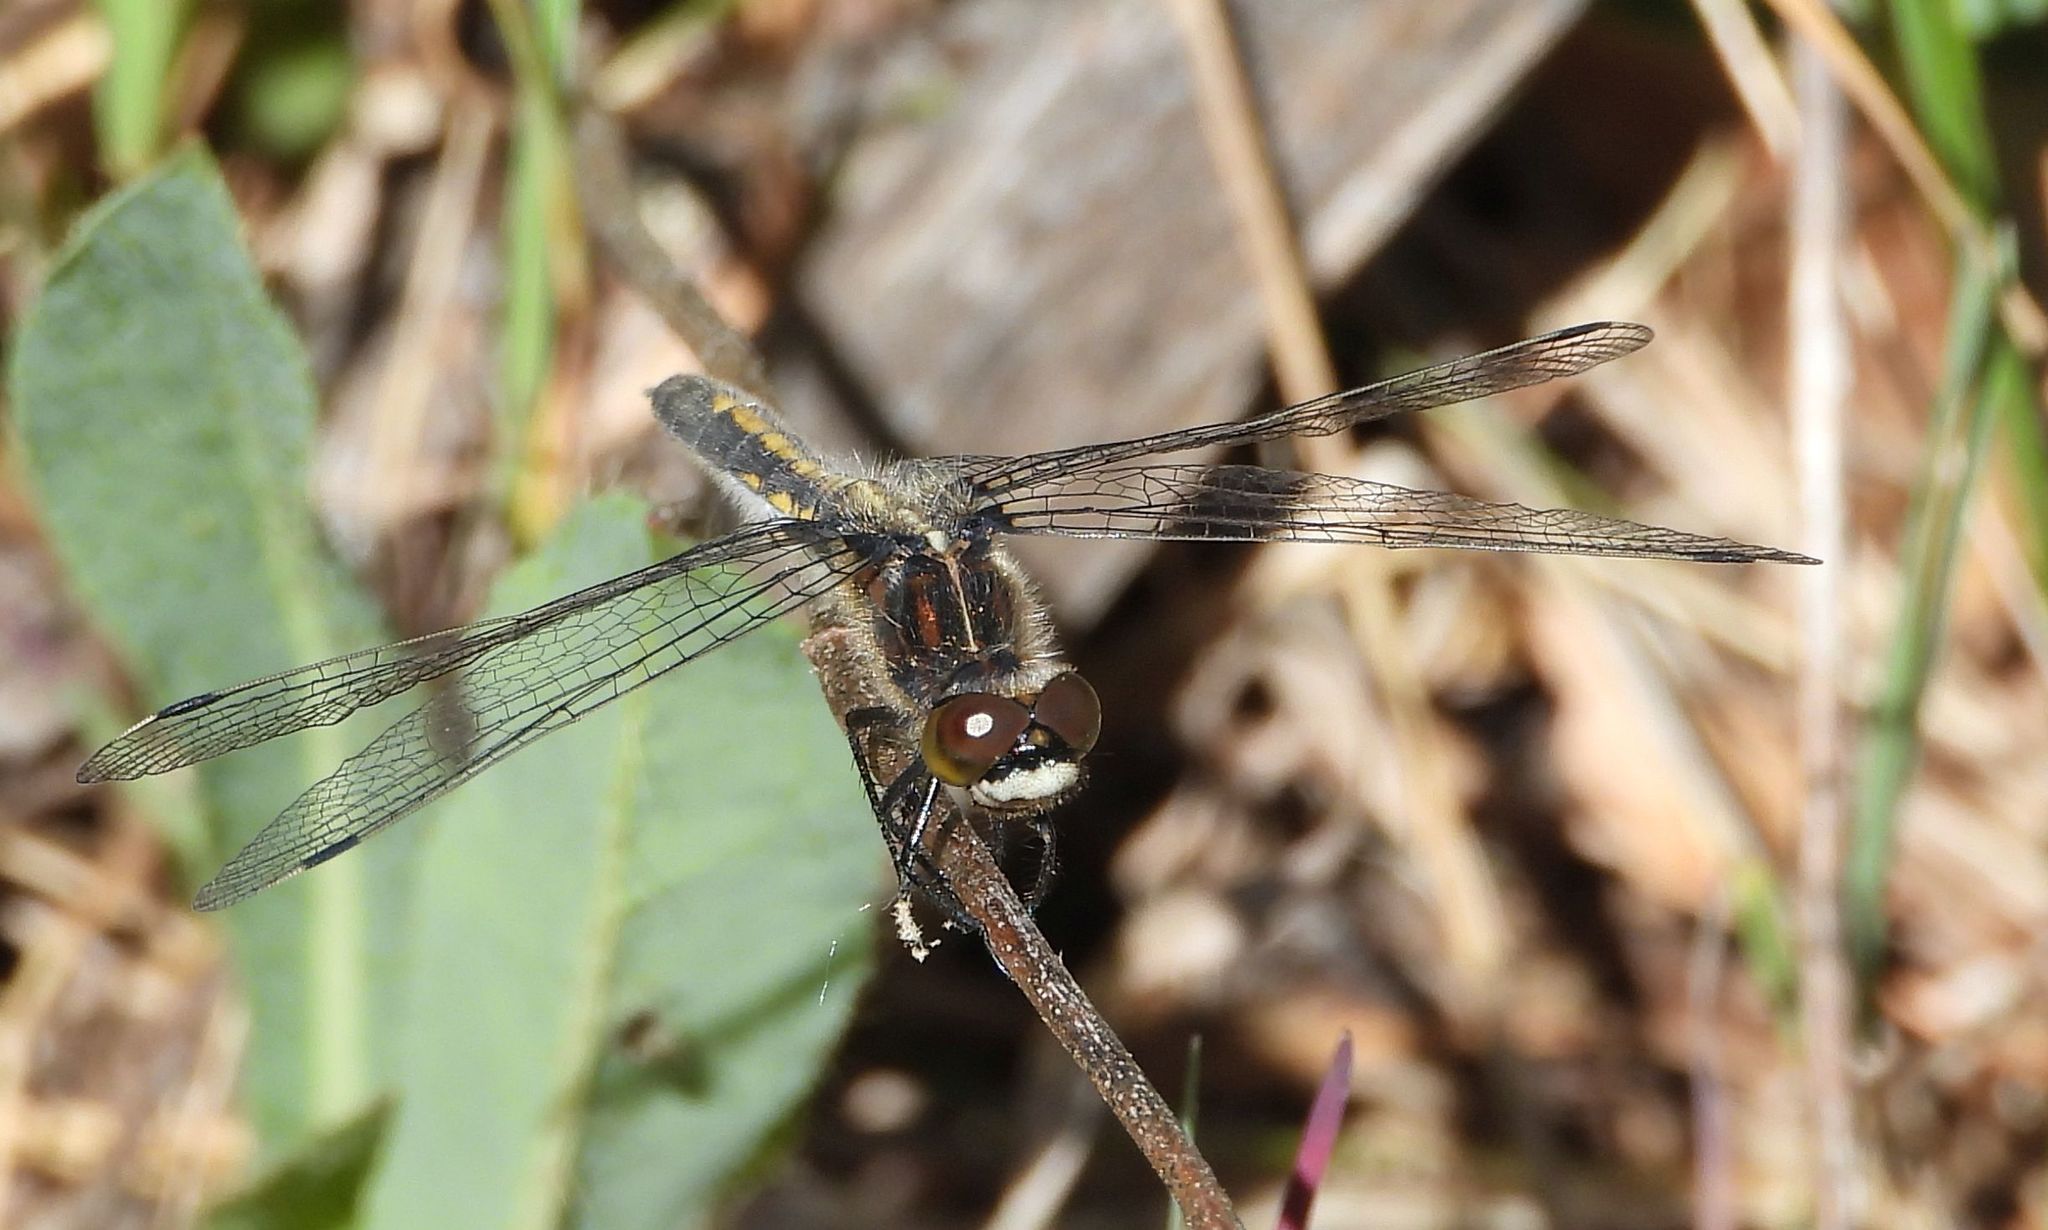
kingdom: Animalia
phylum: Arthropoda
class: Insecta
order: Odonata
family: Libellulidae
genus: Leucorrhinia
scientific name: Leucorrhinia intacta
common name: Dot-tailed whiteface
